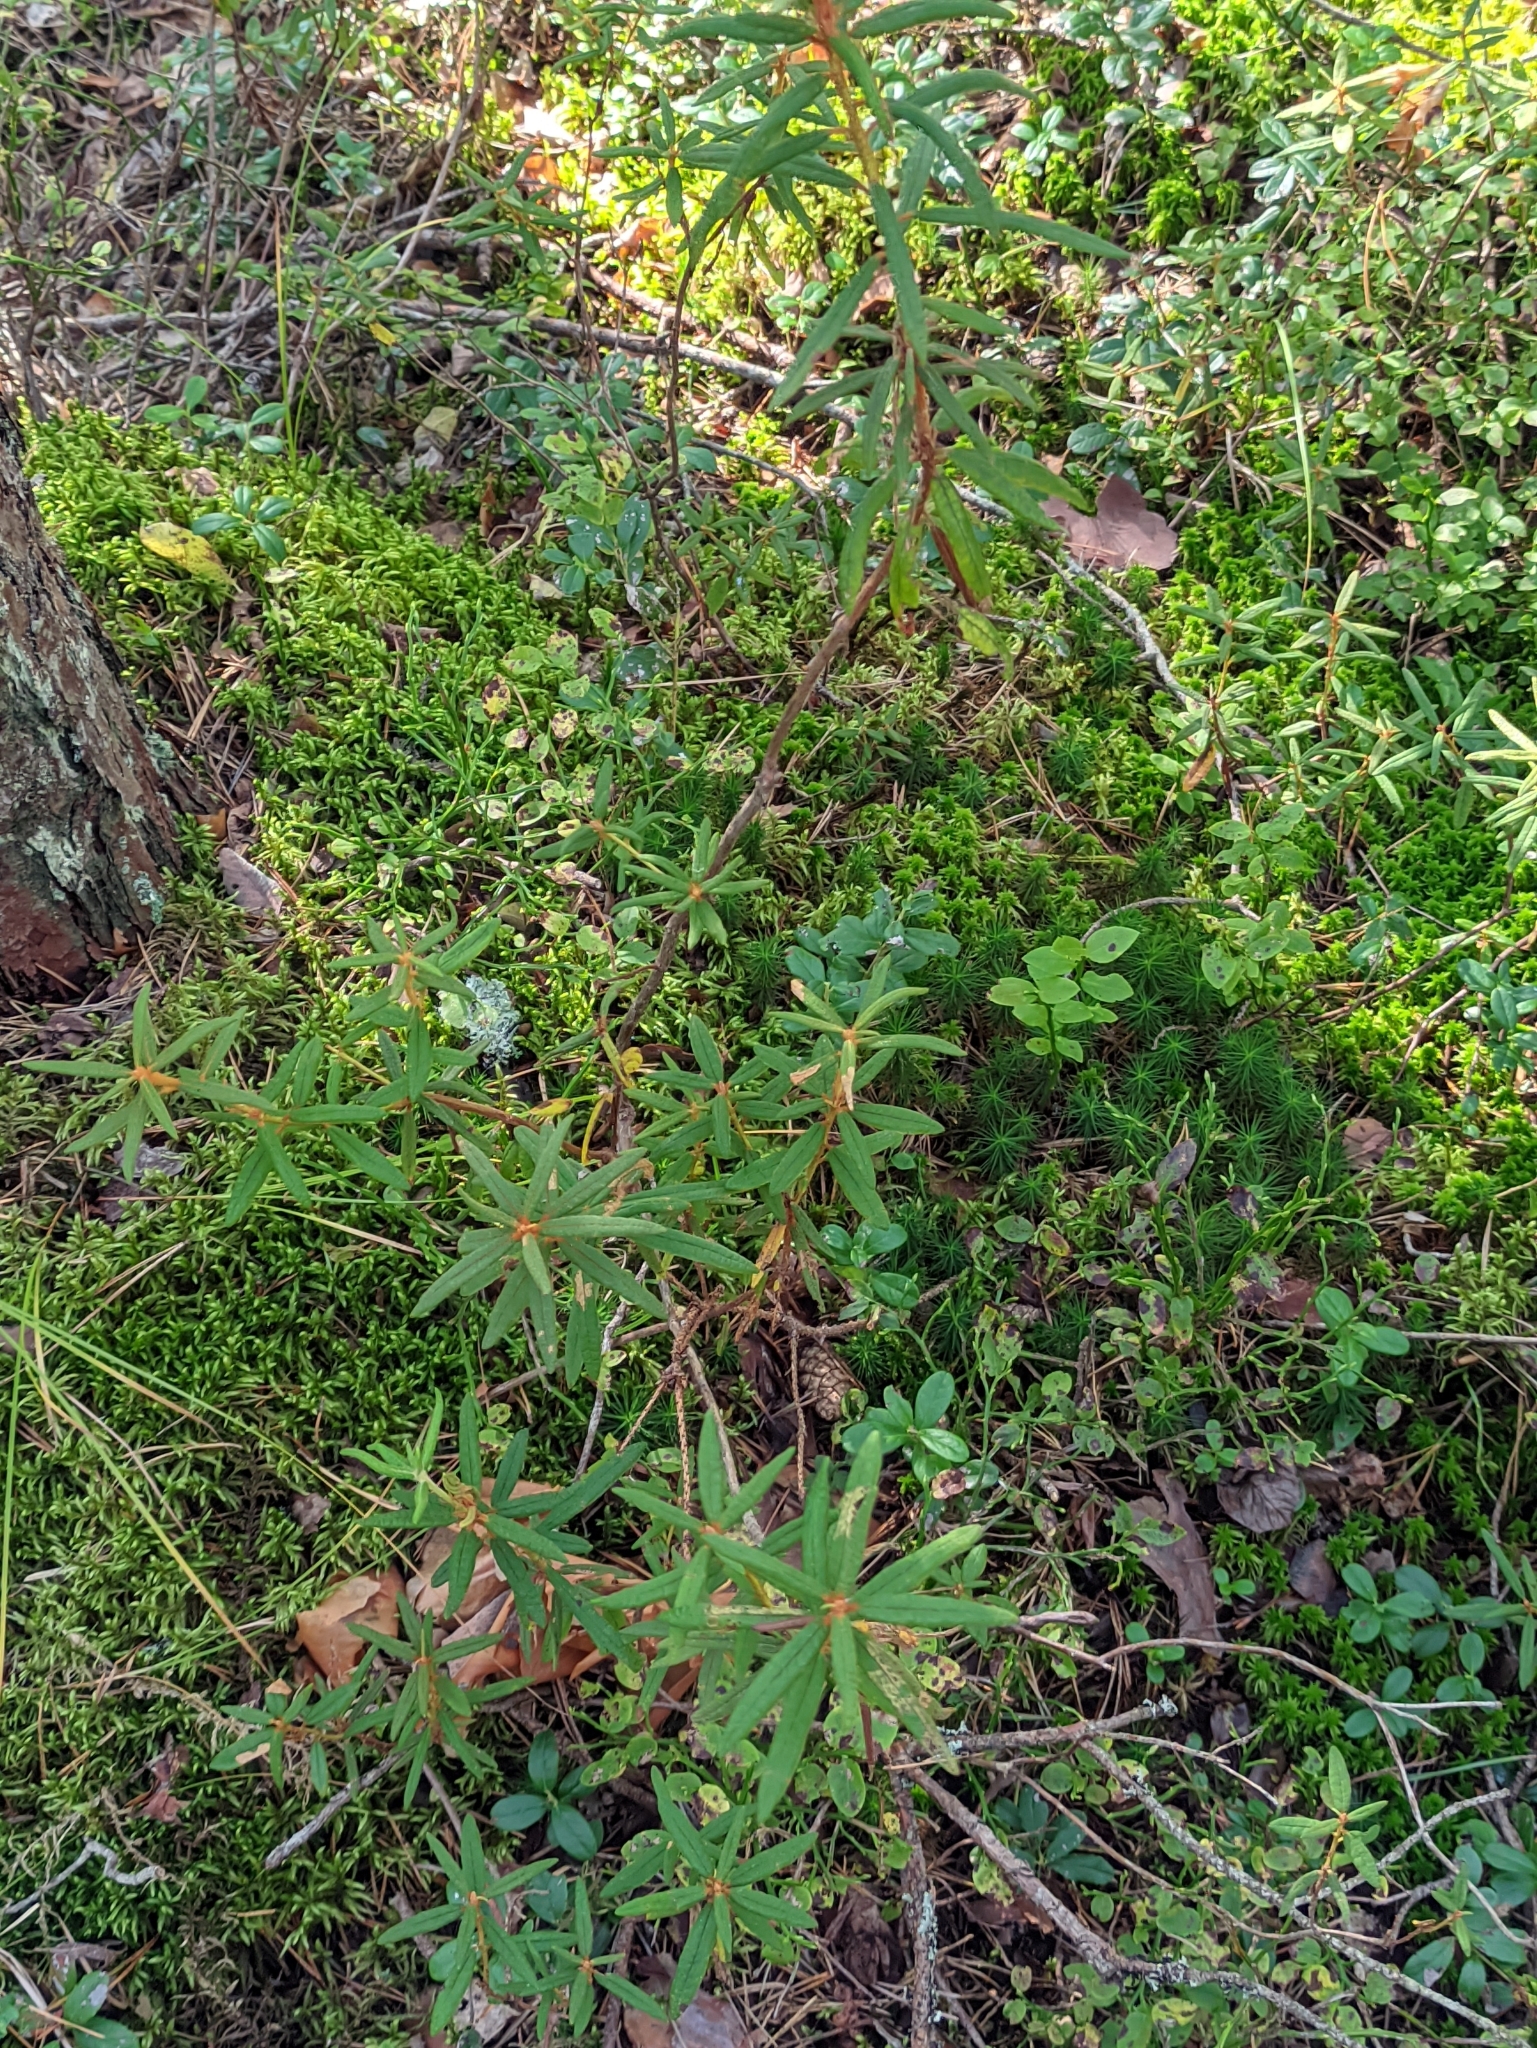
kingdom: Plantae
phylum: Tracheophyta
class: Magnoliopsida
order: Ericales
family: Ericaceae
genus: Rhododendron
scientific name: Rhododendron tomentosum
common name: Marsh labrador tea
